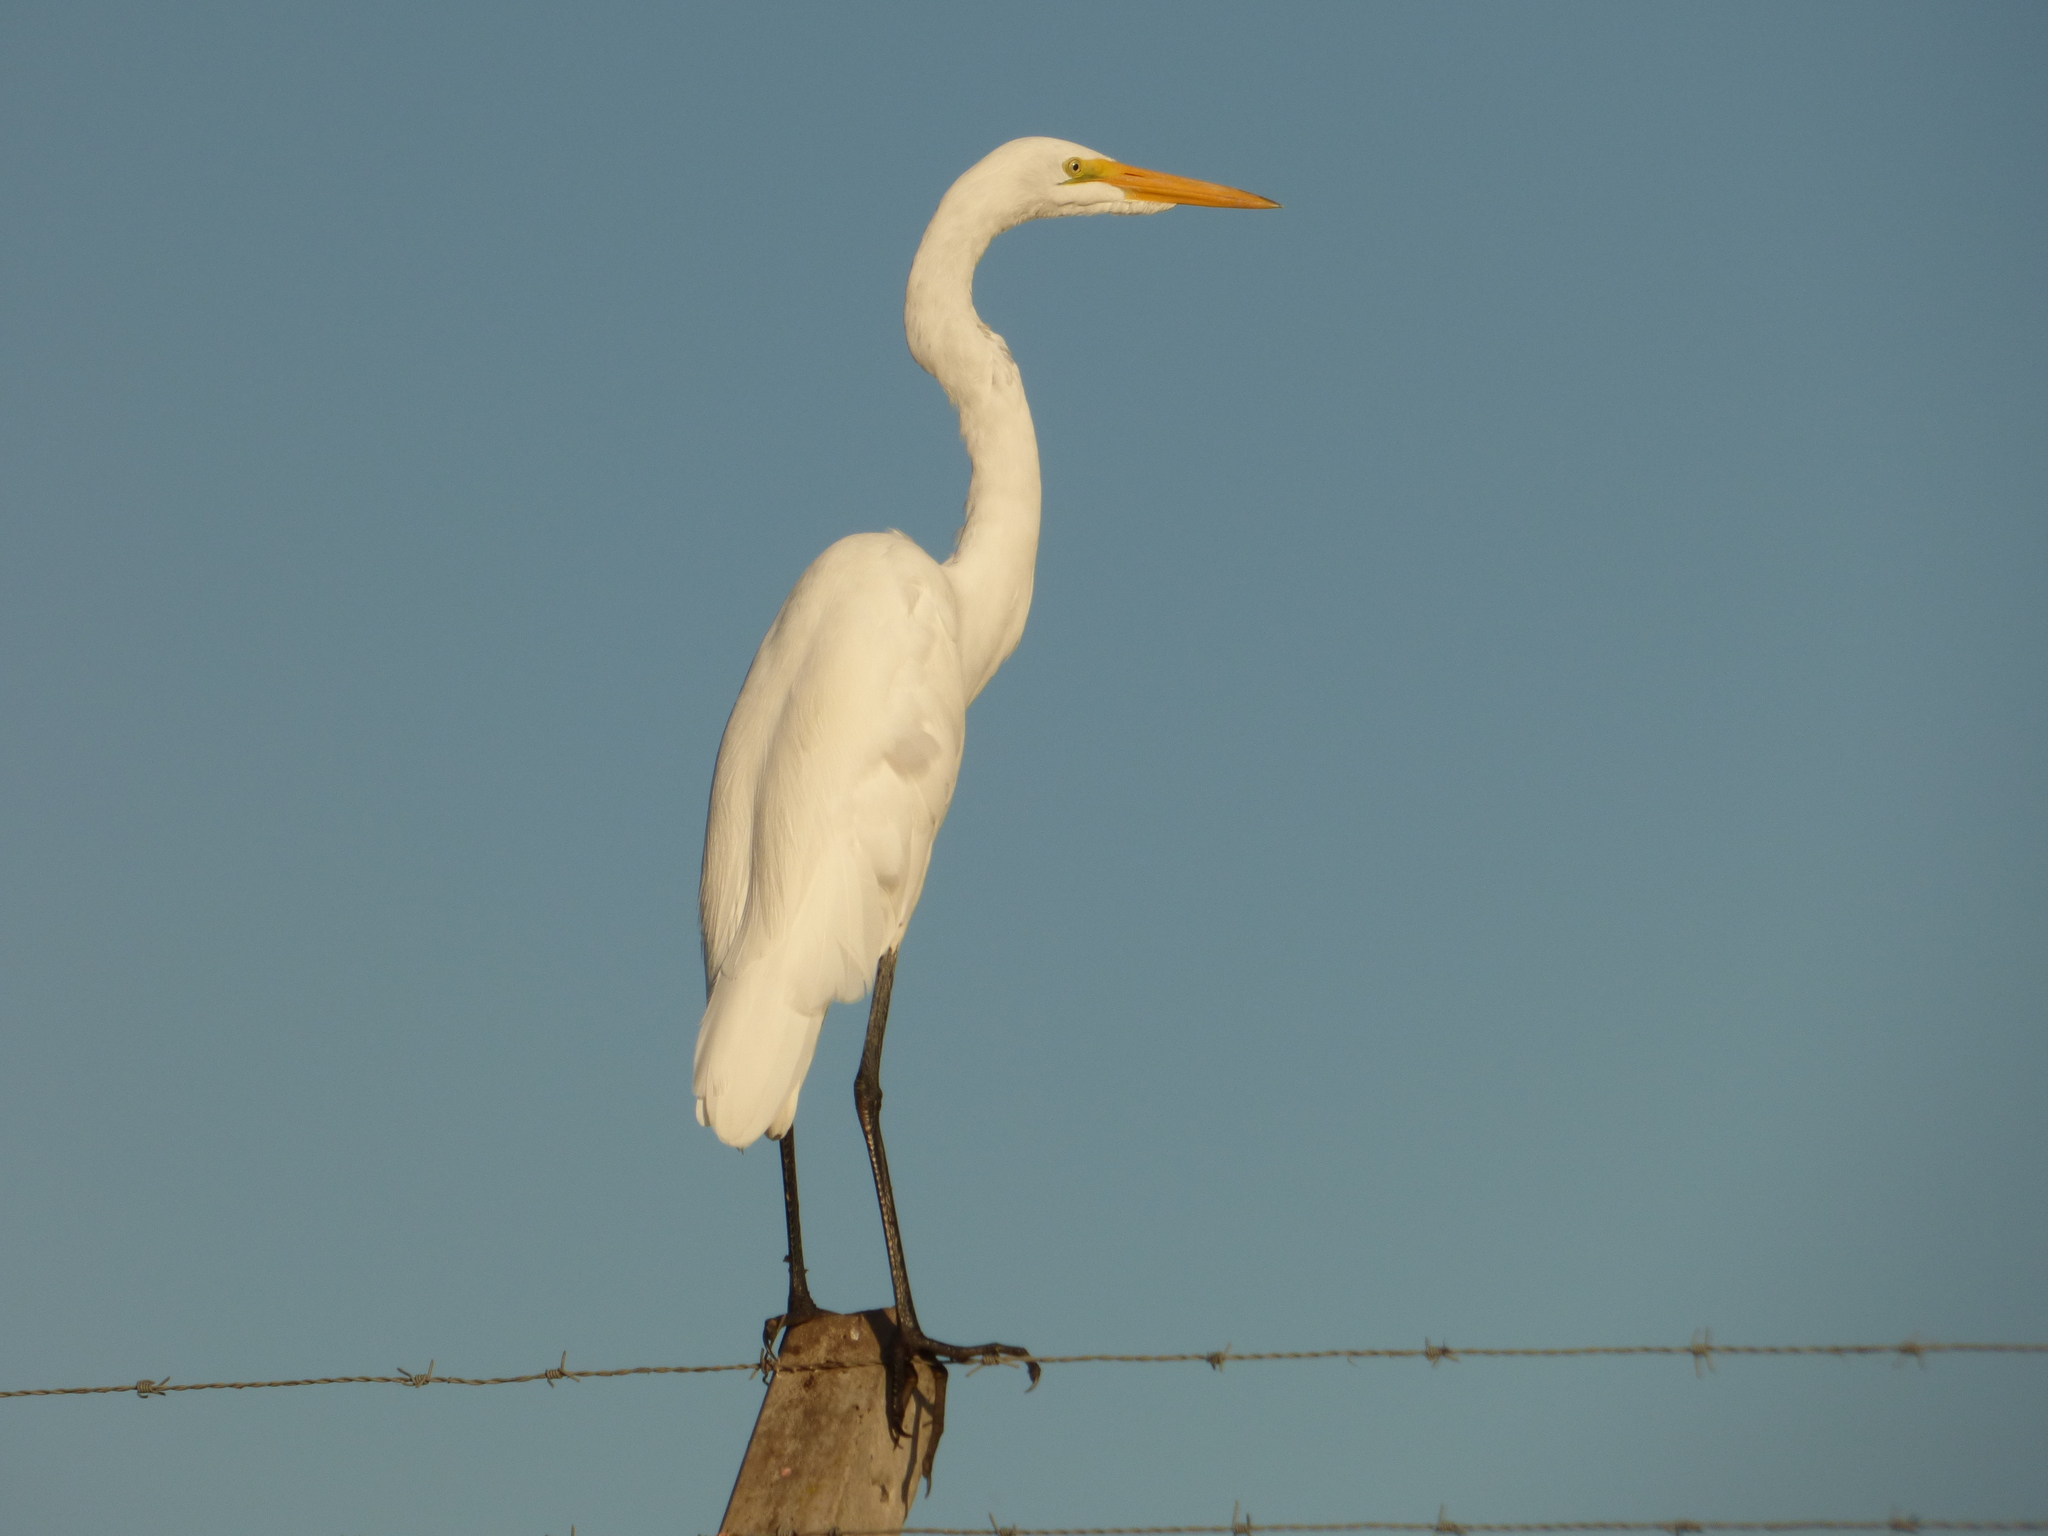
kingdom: Animalia
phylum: Chordata
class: Aves
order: Pelecaniformes
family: Ardeidae
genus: Ardea
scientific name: Ardea alba
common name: Great egret
